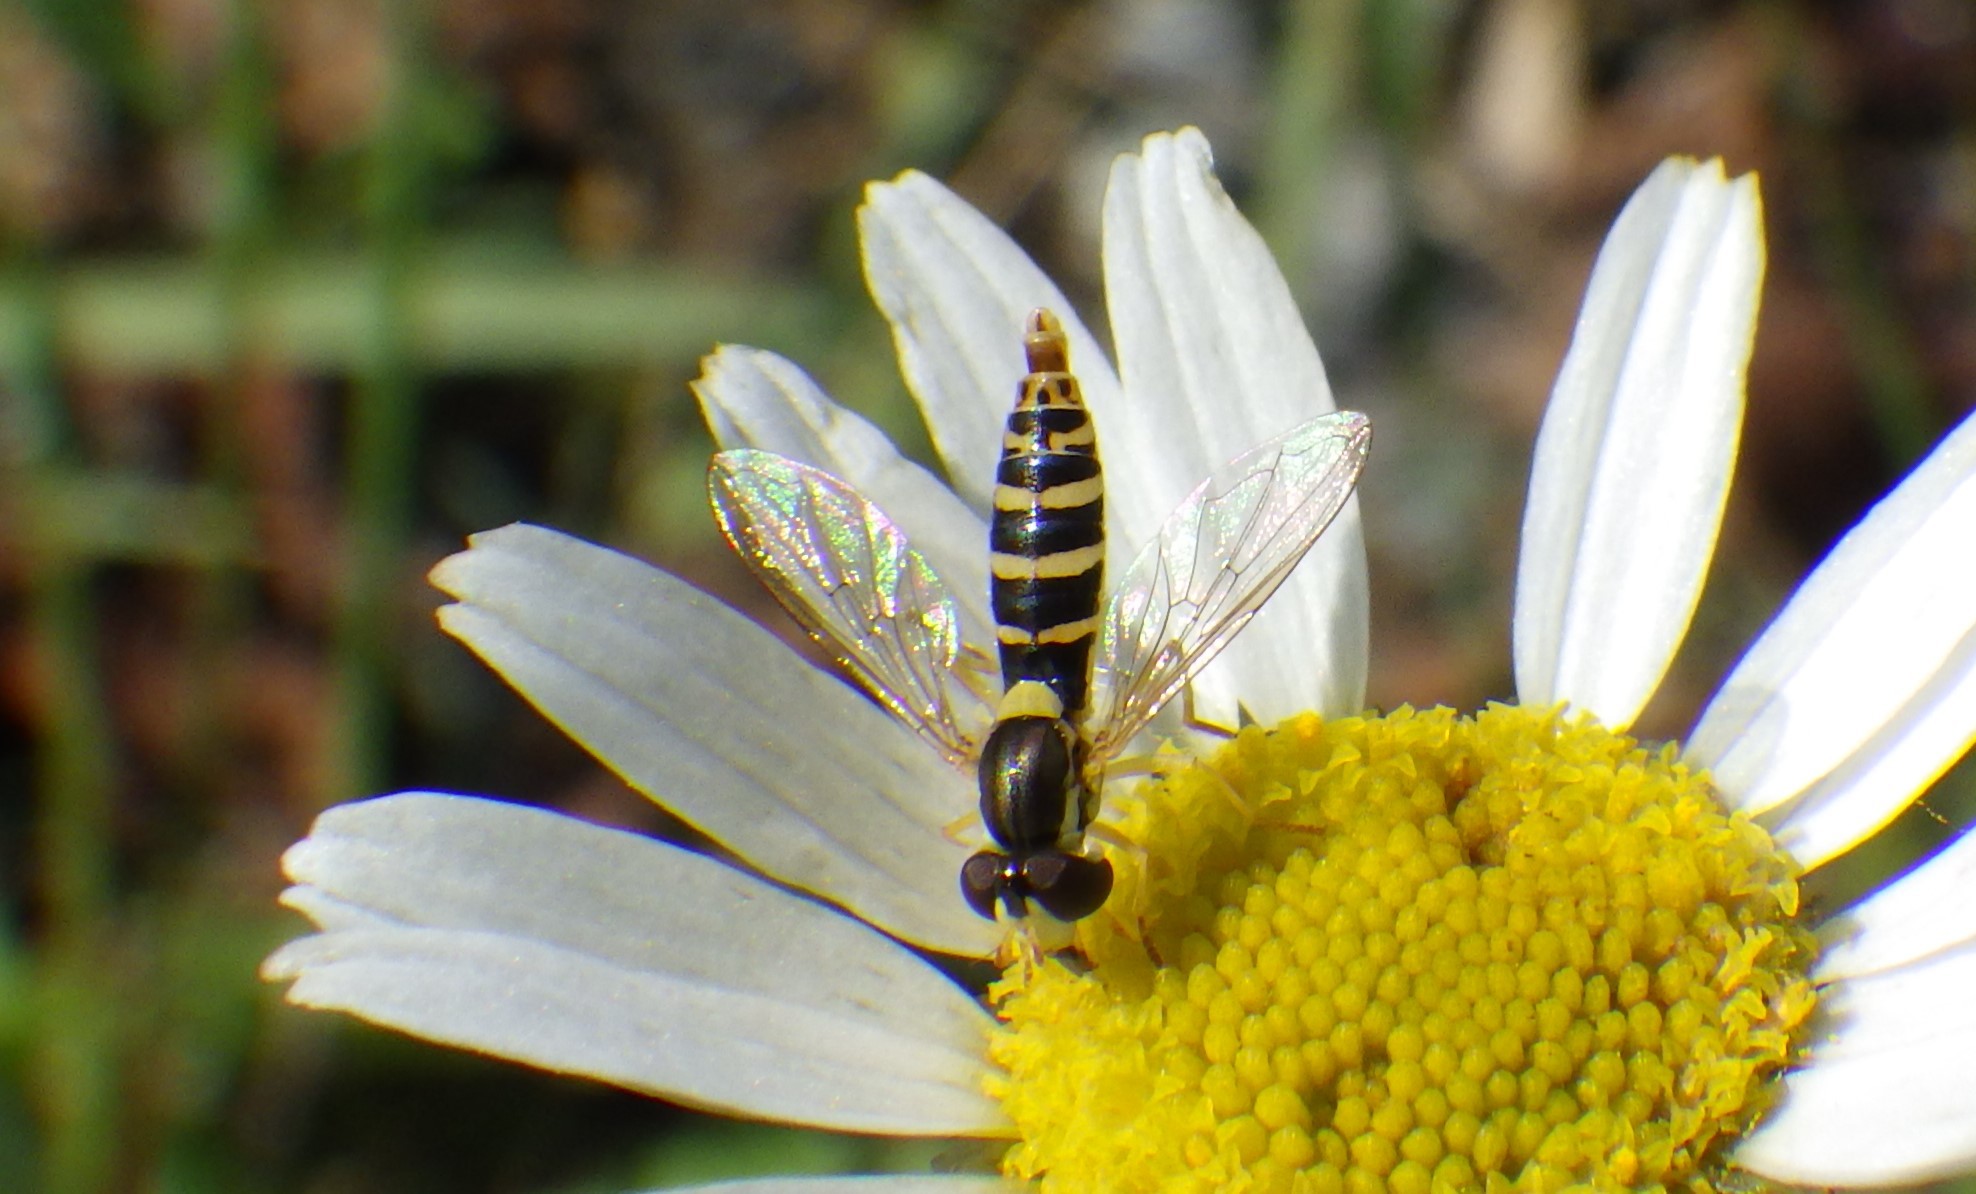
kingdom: Animalia
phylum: Arthropoda
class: Insecta
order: Diptera
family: Syrphidae
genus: Sphaerophoria
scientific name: Sphaerophoria
